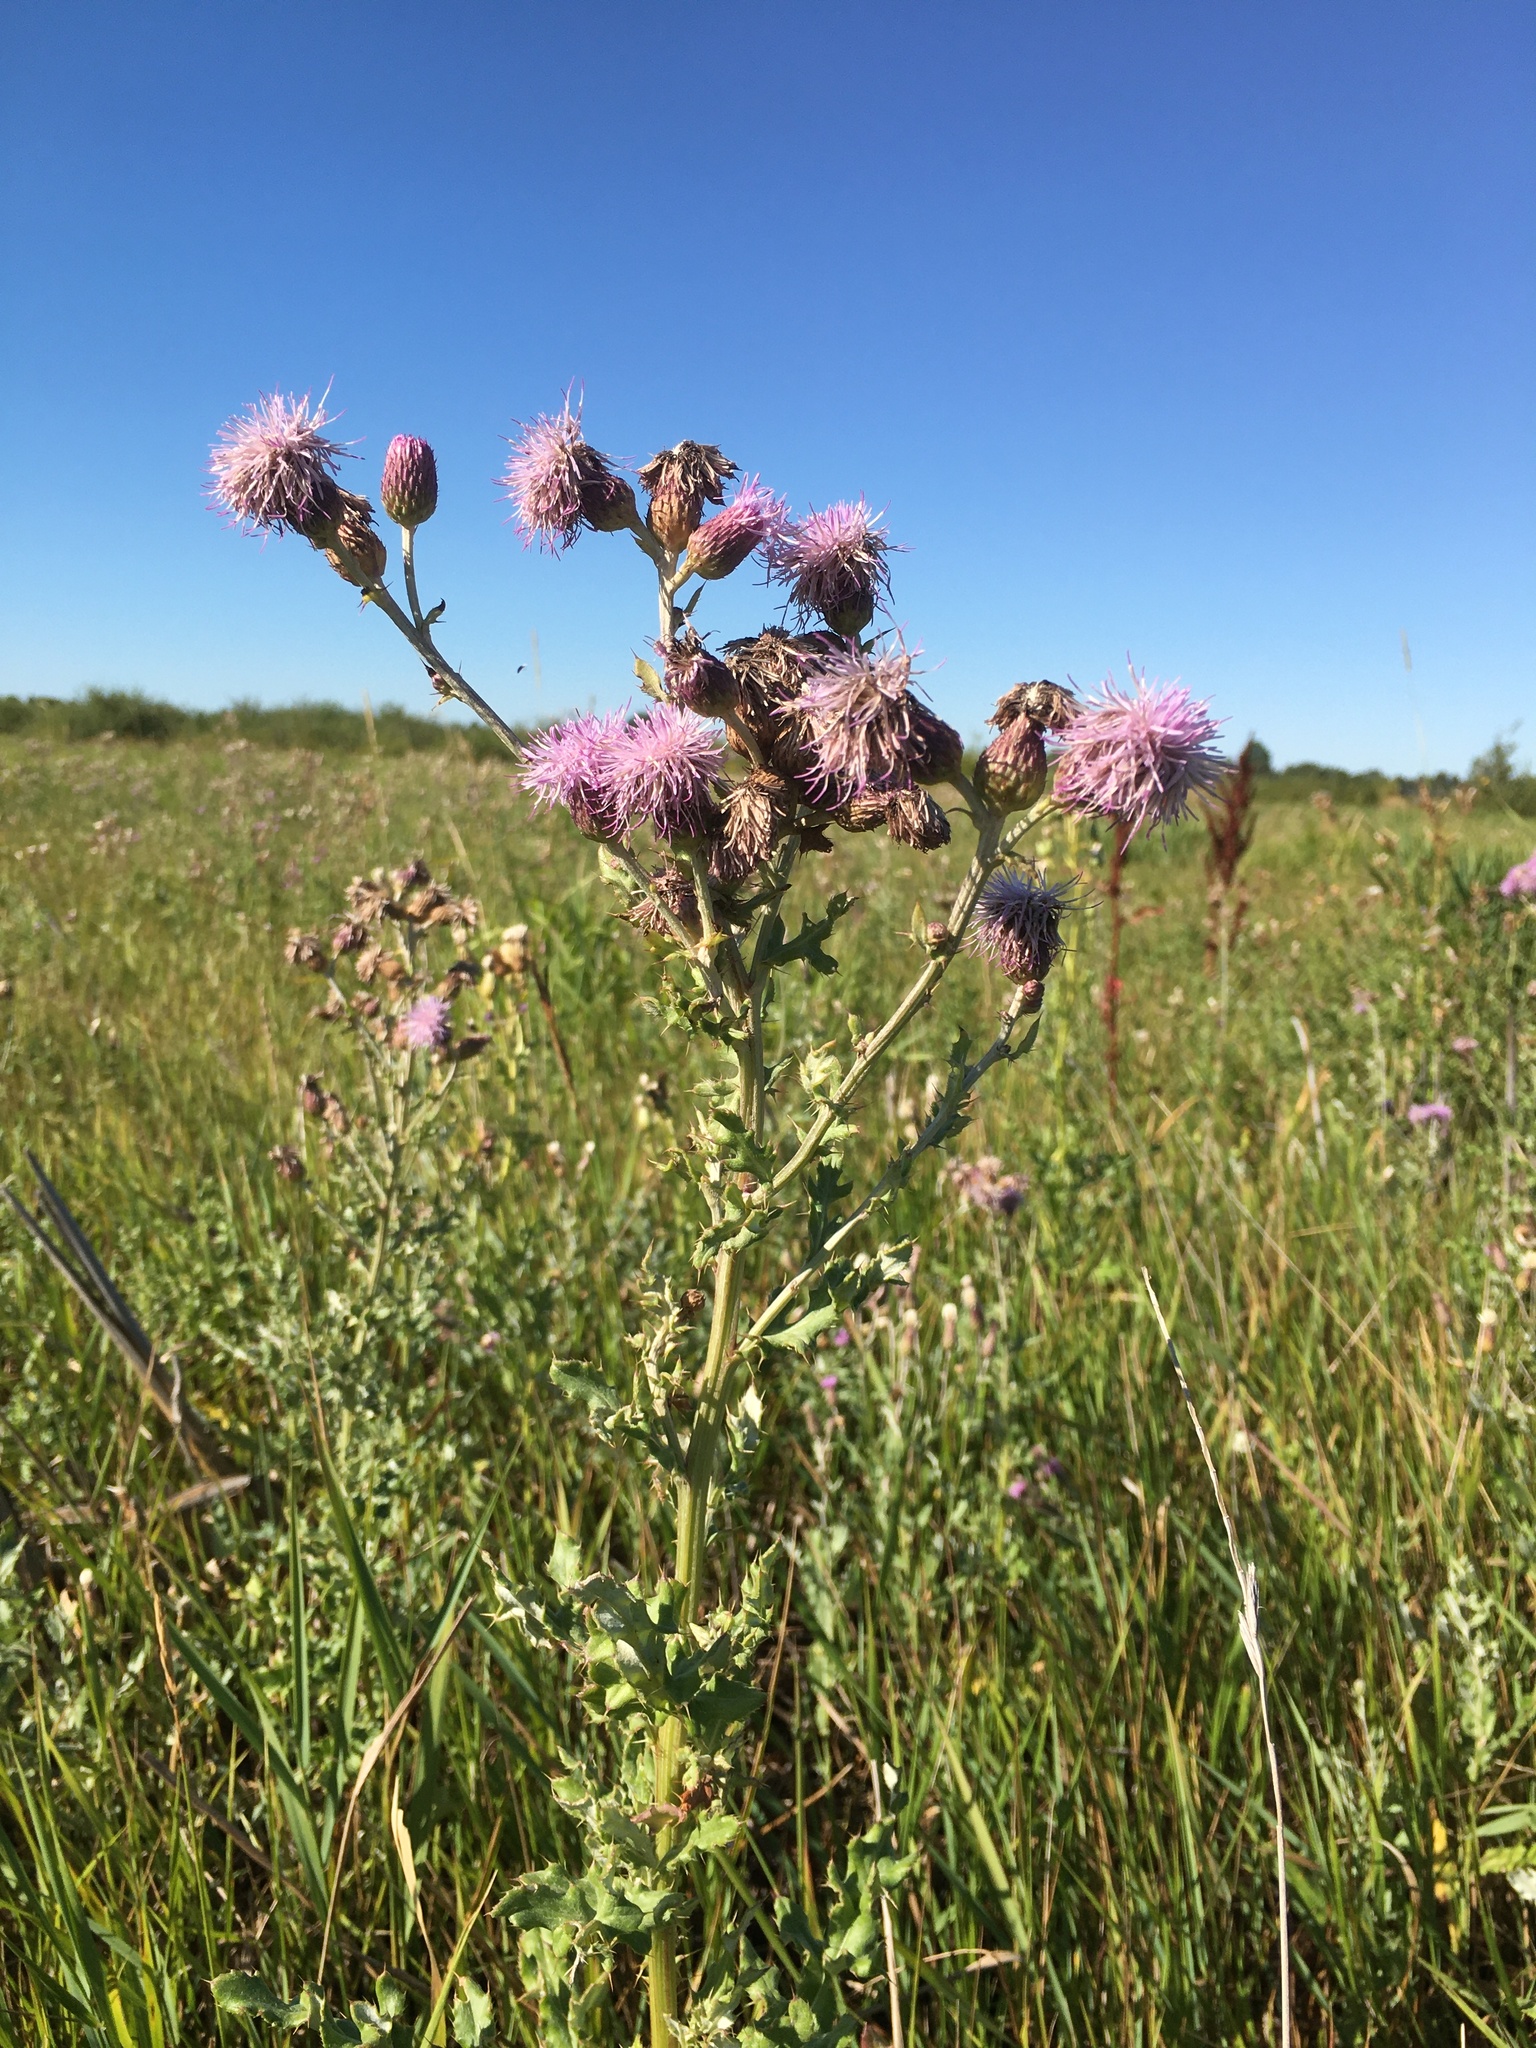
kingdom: Plantae
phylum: Tracheophyta
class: Magnoliopsida
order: Asterales
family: Asteraceae
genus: Cirsium
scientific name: Cirsium arvense
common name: Creeping thistle
